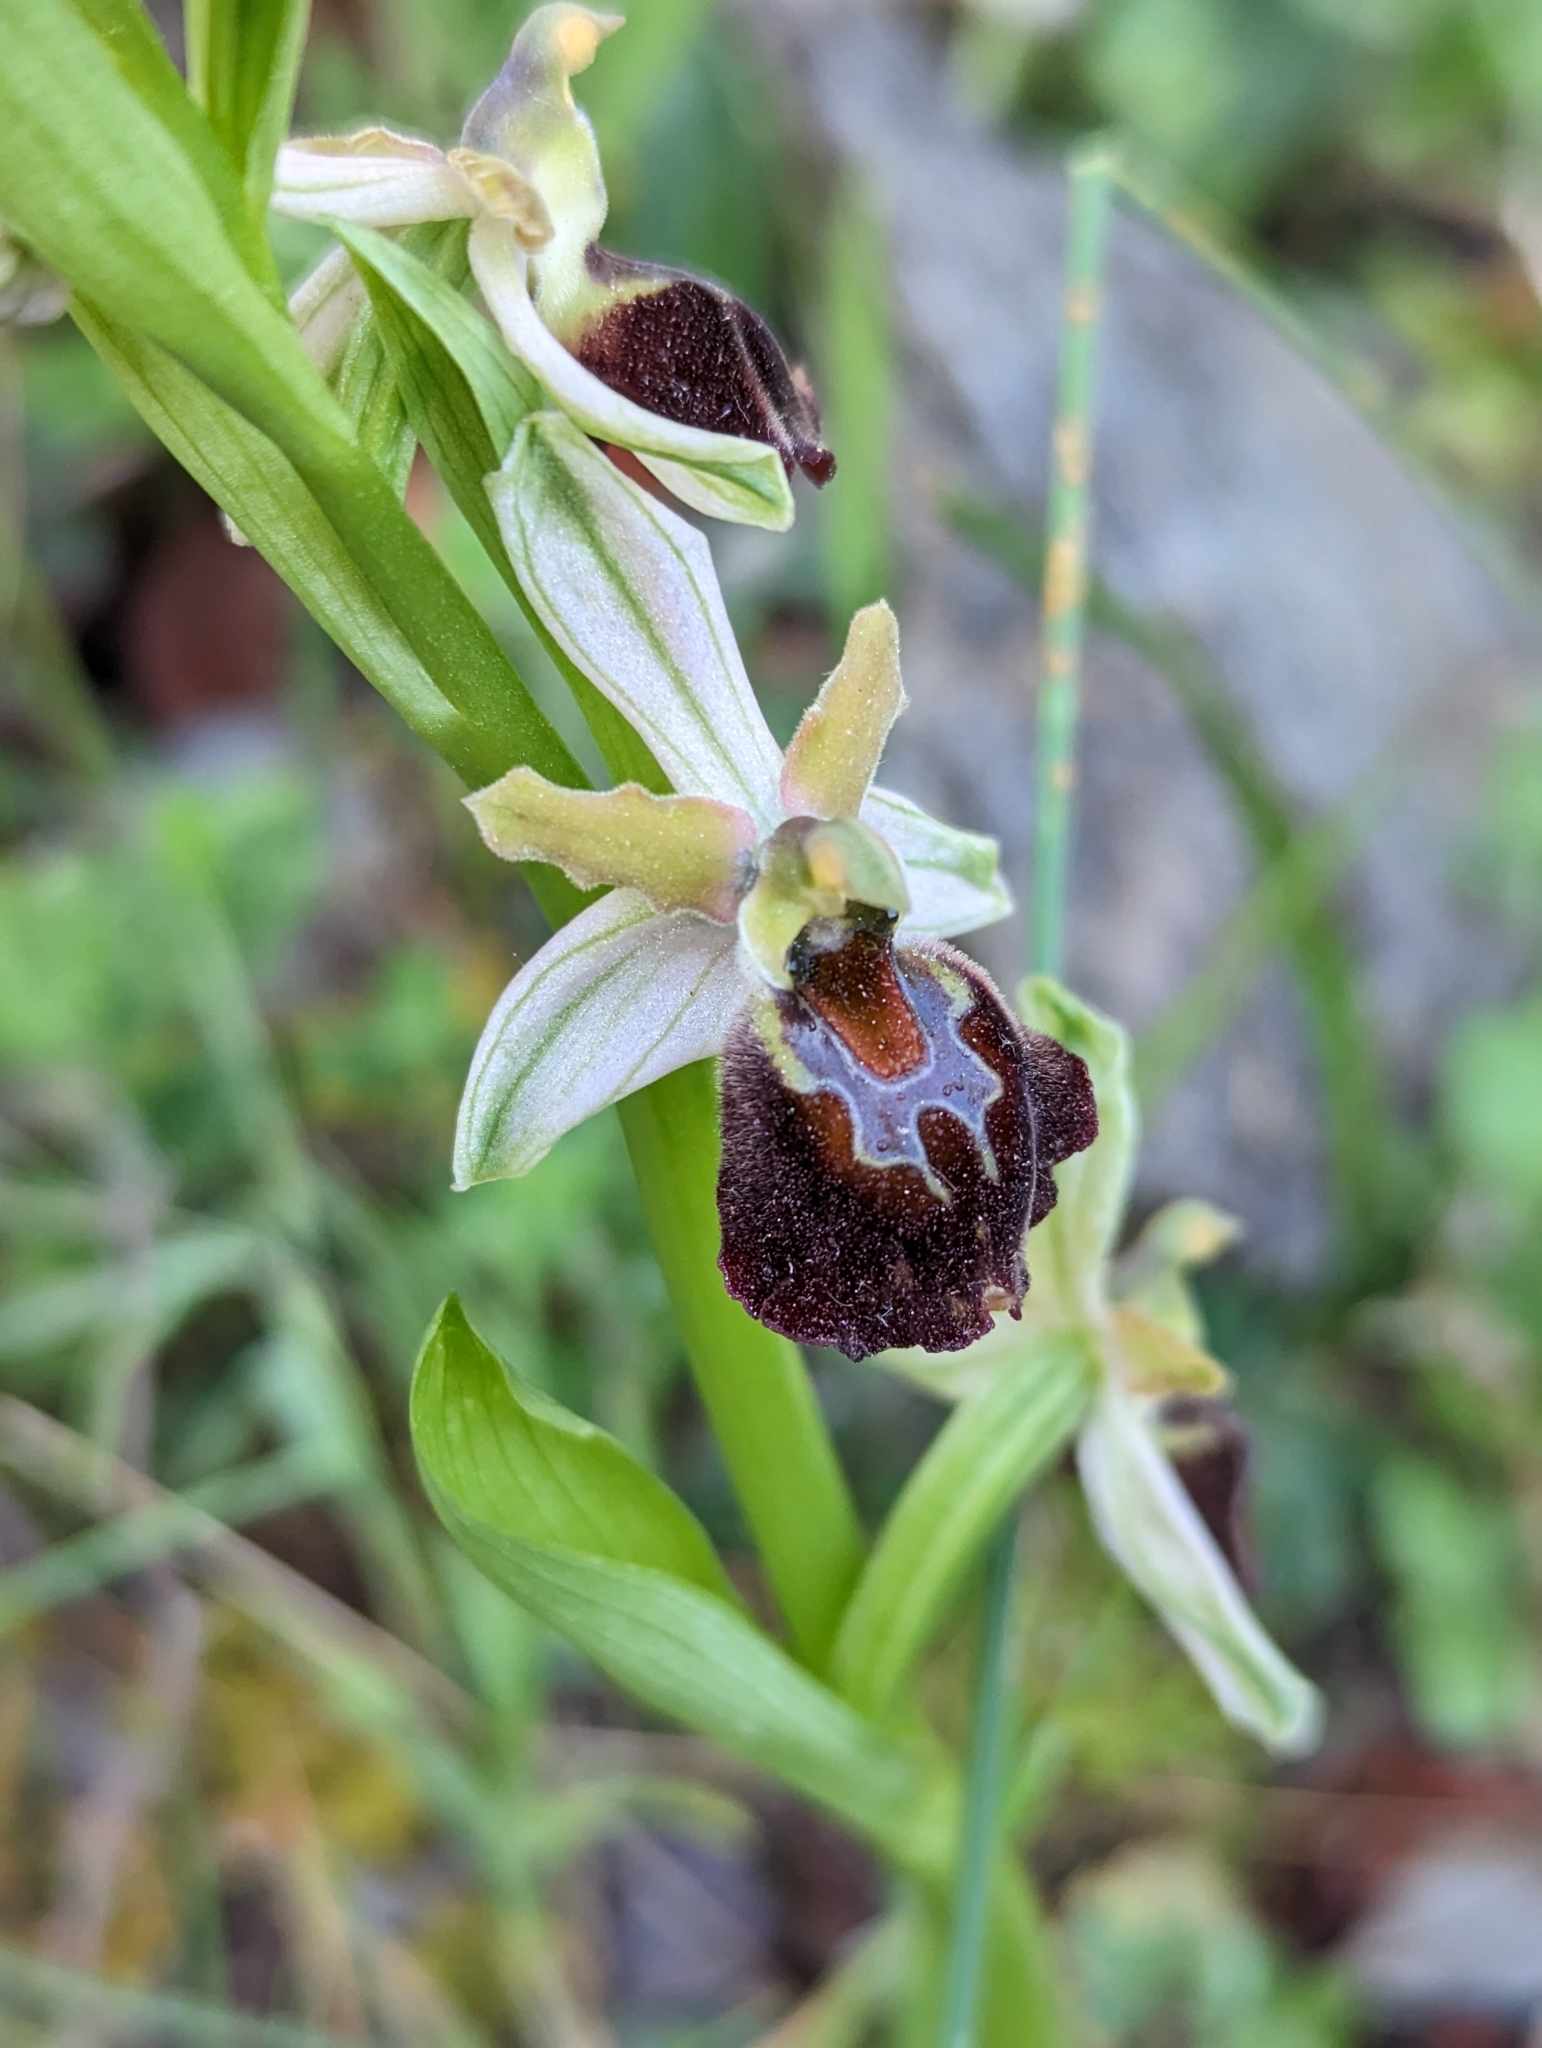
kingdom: Plantae
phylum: Tracheophyta
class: Liliopsida
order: Asparagales
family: Orchidaceae
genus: Ophrys
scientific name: Ophrys arachnitiformis
